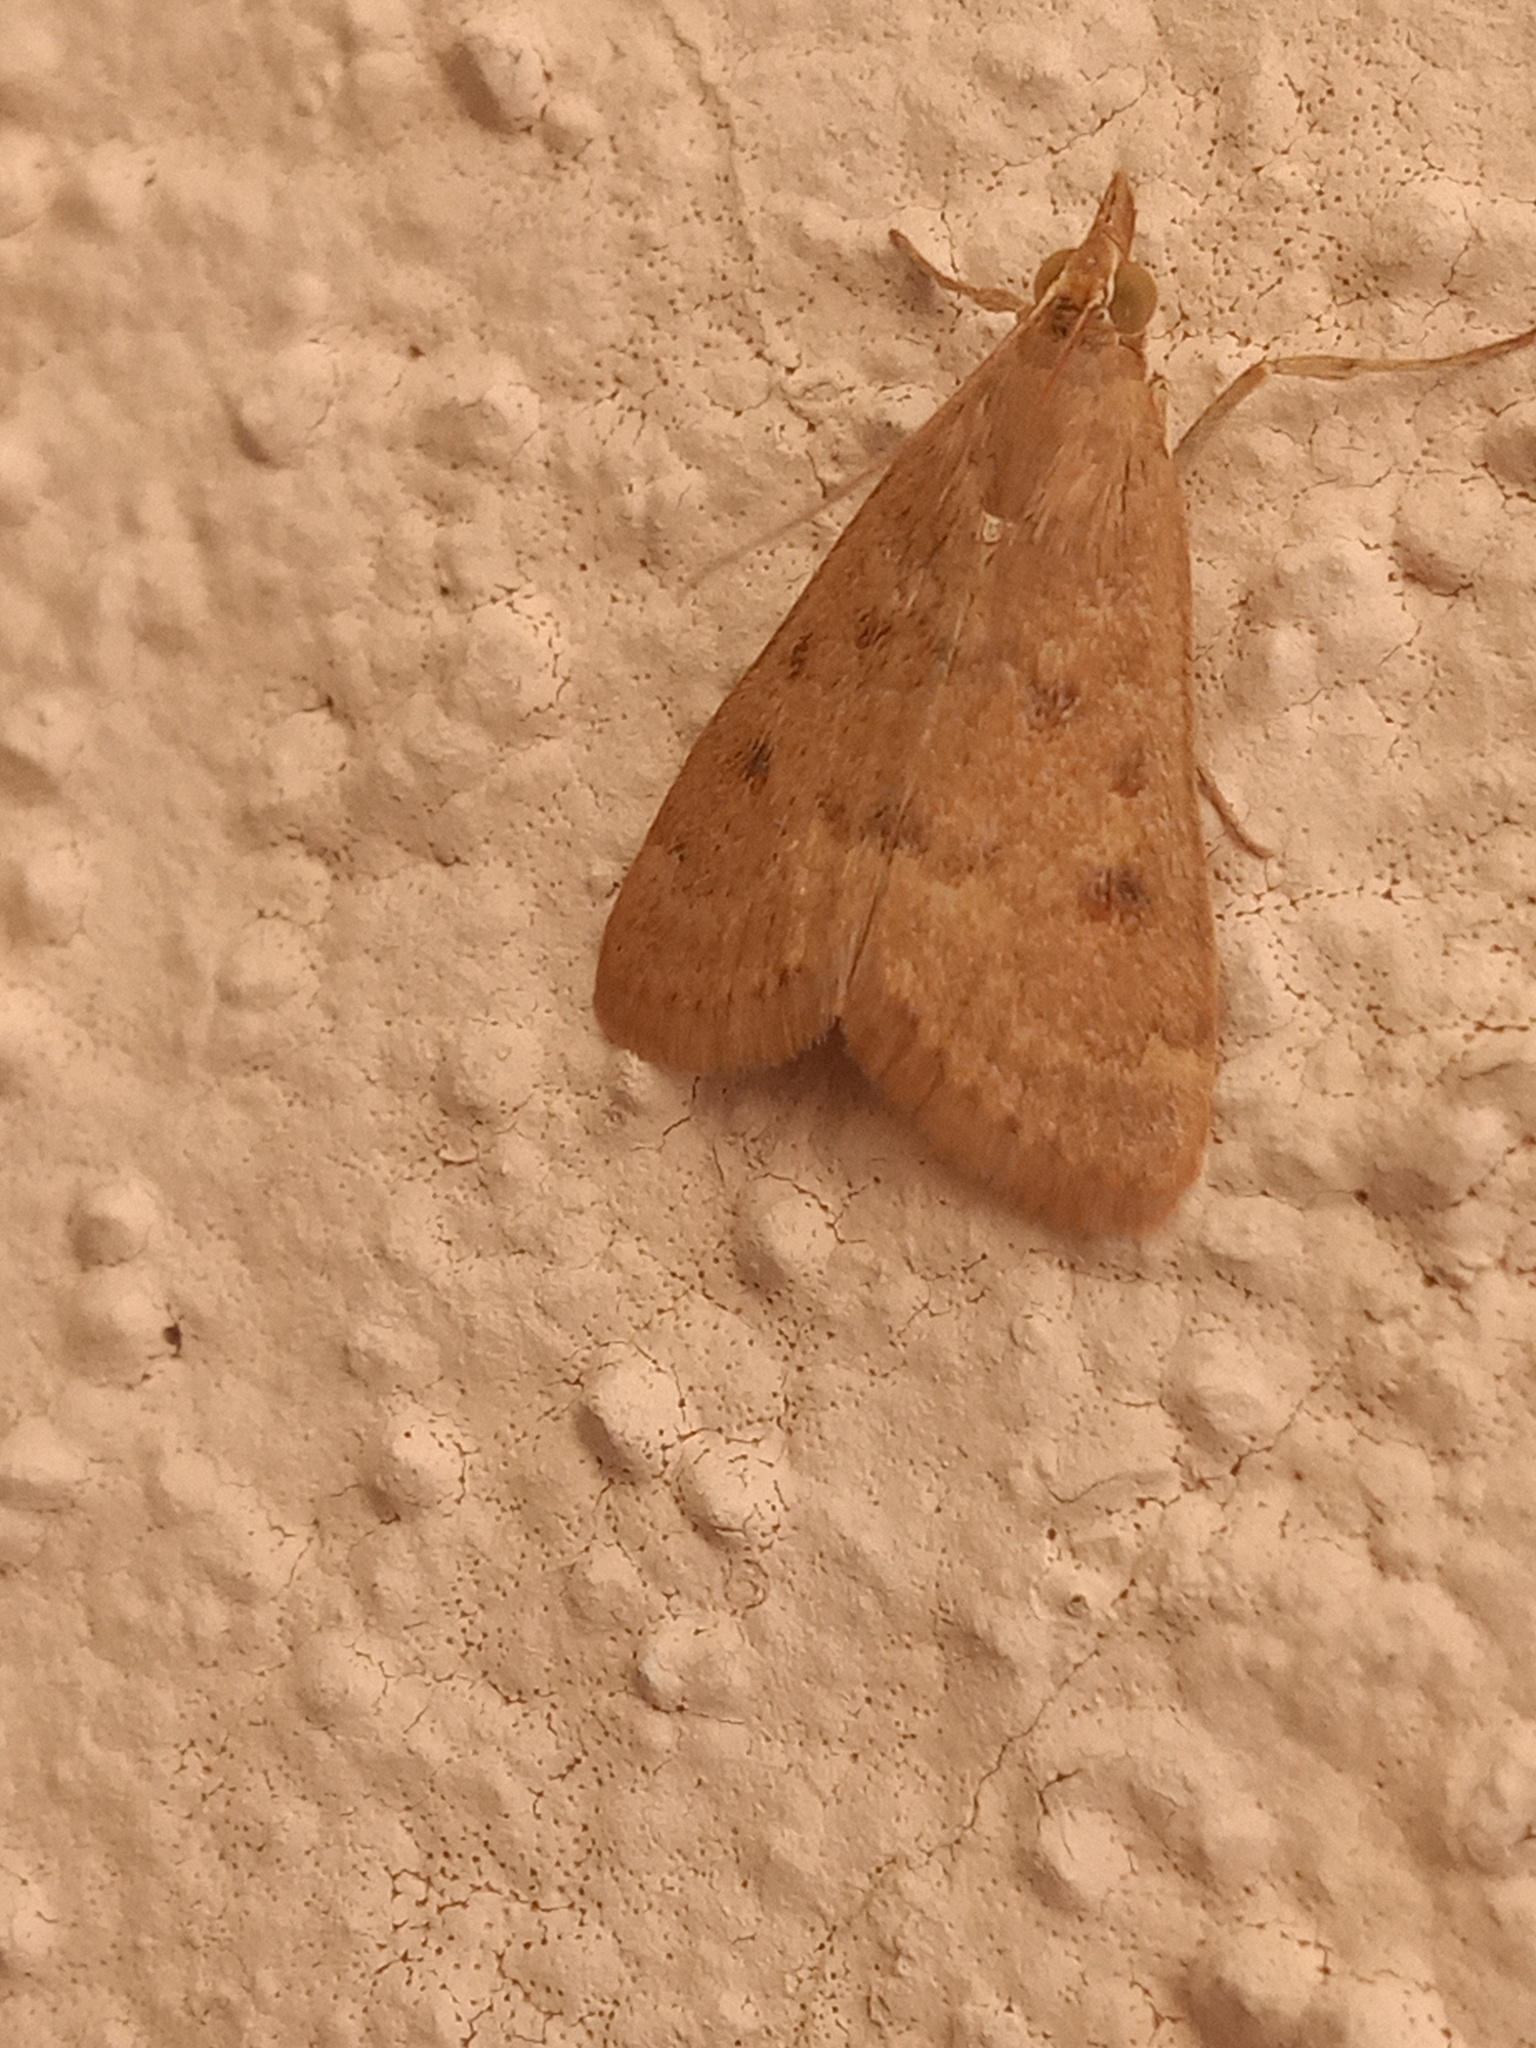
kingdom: Animalia
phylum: Arthropoda
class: Insecta
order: Lepidoptera
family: Crambidae
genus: Achyra
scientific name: Achyra rantalis
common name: Garden webworm
